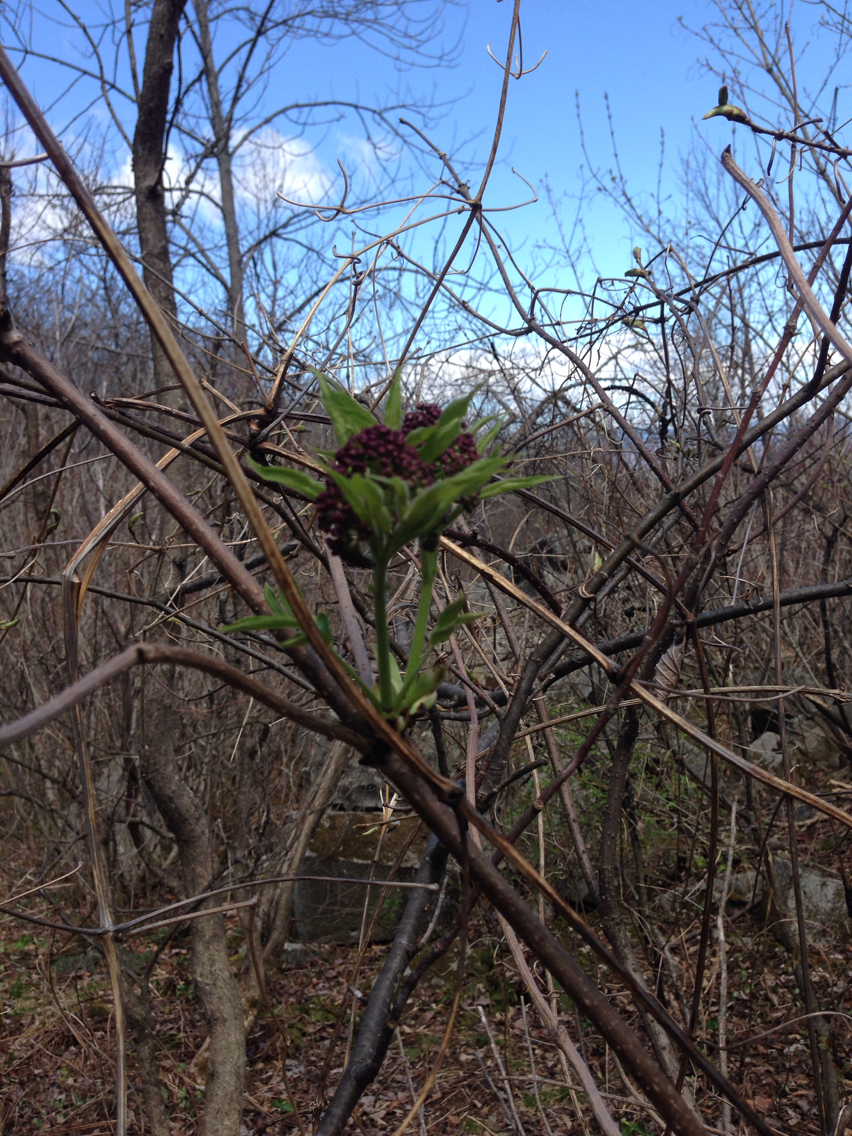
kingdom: Plantae
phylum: Tracheophyta
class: Magnoliopsida
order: Dipsacales
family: Viburnaceae
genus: Sambucus
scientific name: Sambucus racemosa
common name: Red-berried elder
